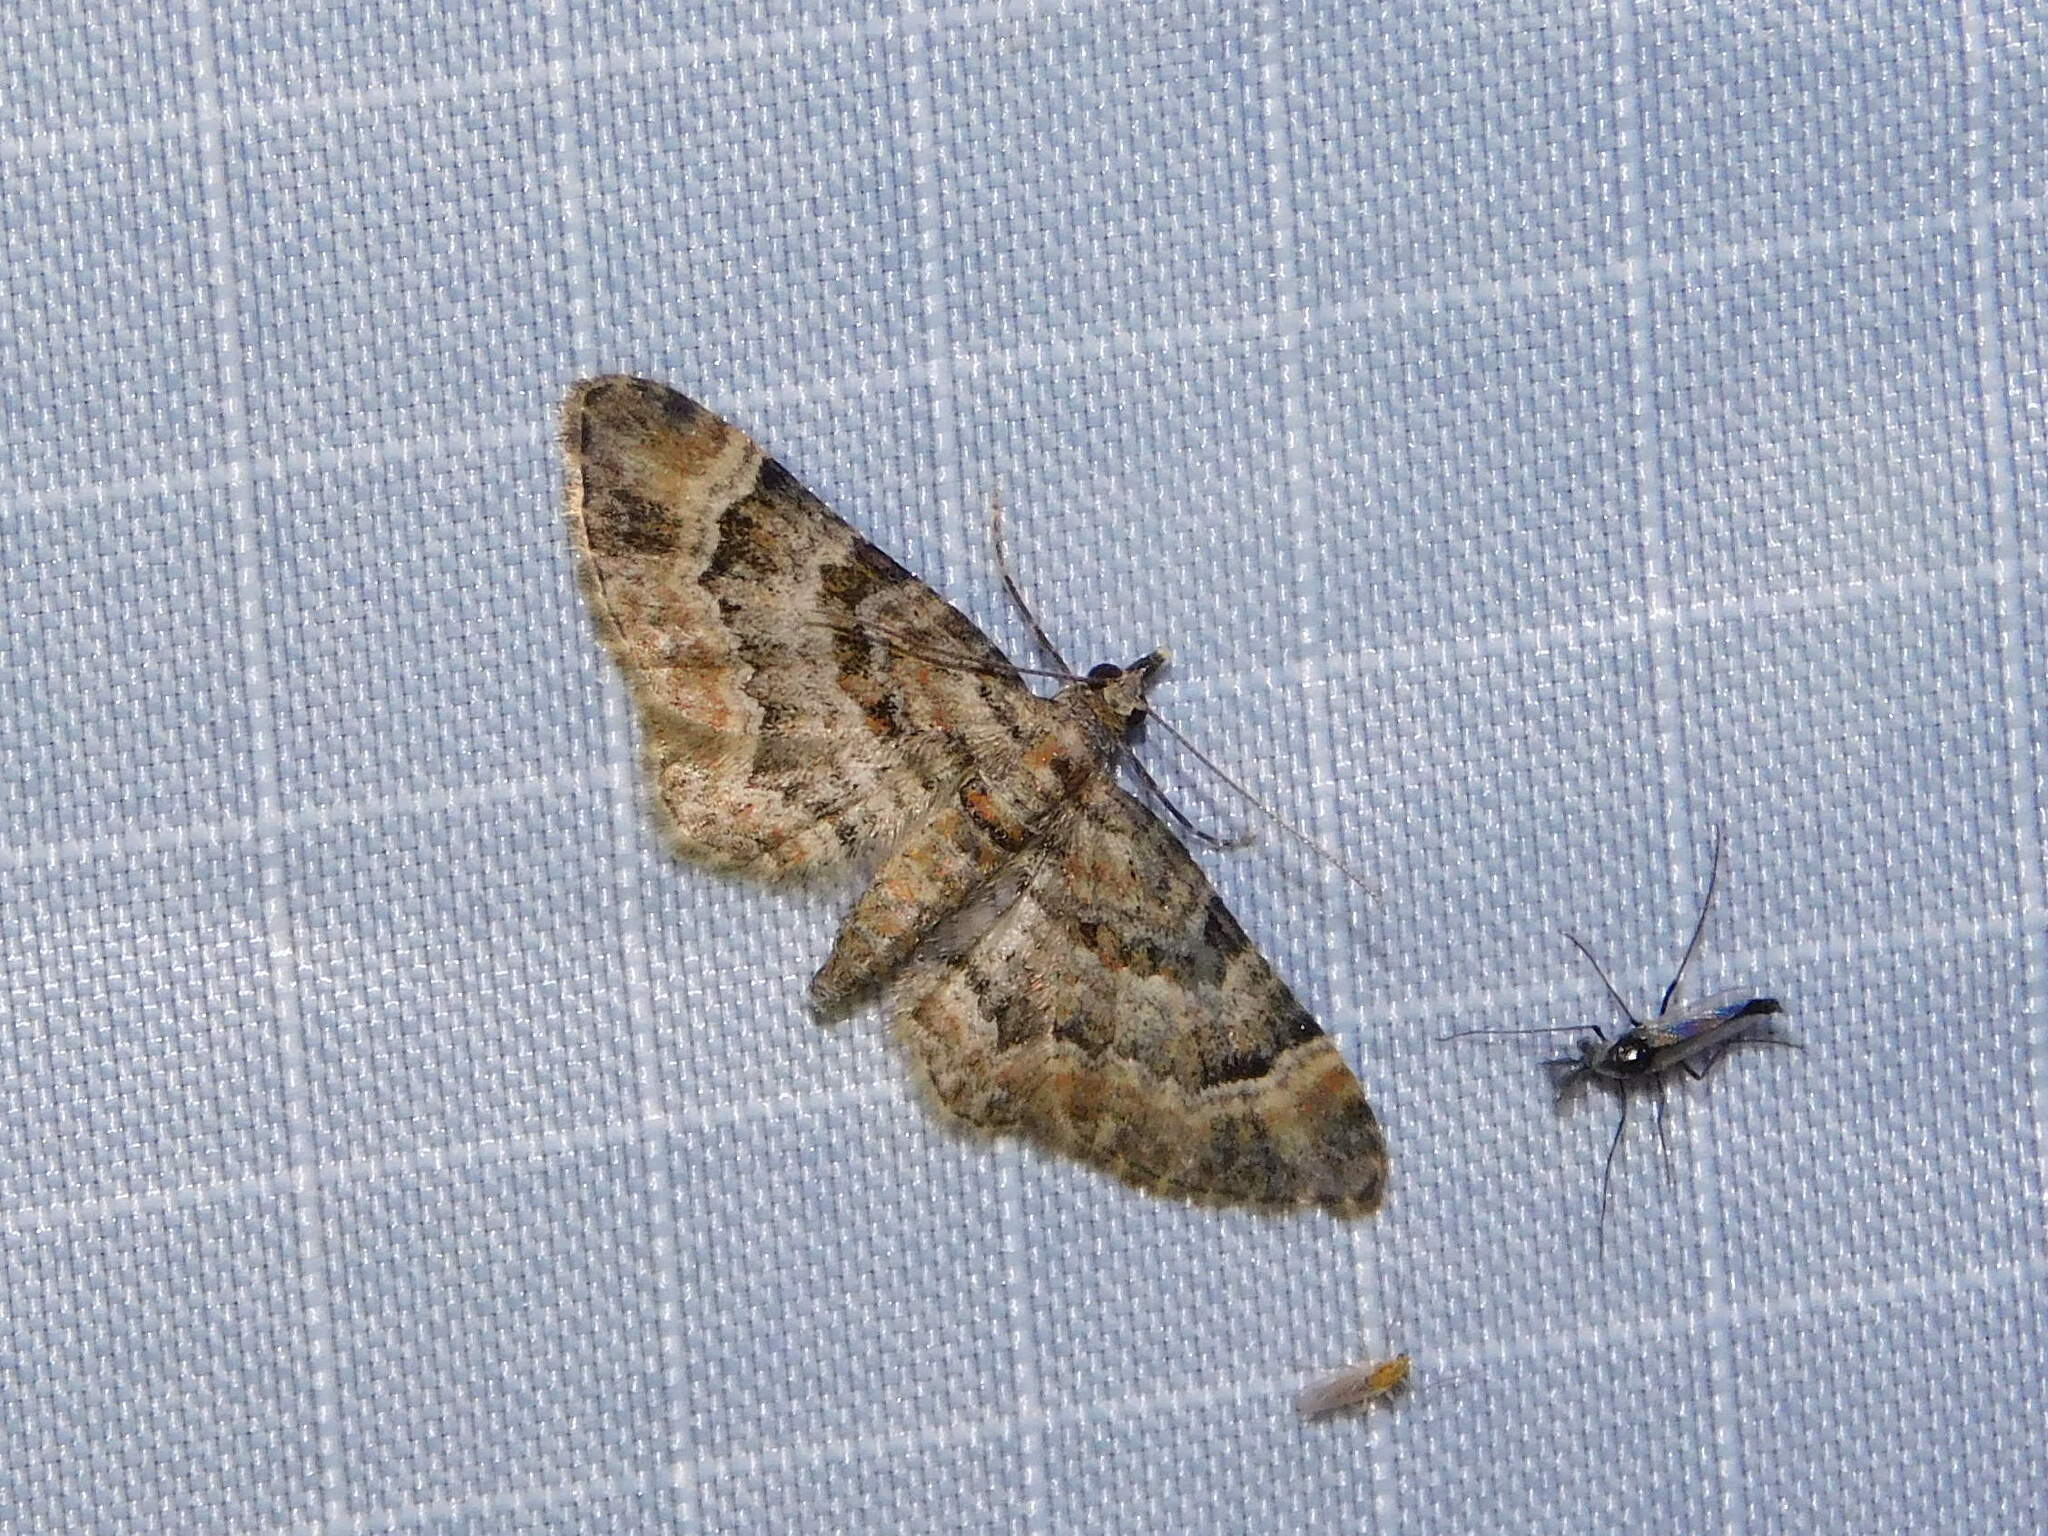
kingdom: Animalia
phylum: Arthropoda
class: Insecta
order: Lepidoptera
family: Geometridae
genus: Gymnoscelis
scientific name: Gymnoscelis rufifasciata
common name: Double-striped pug
